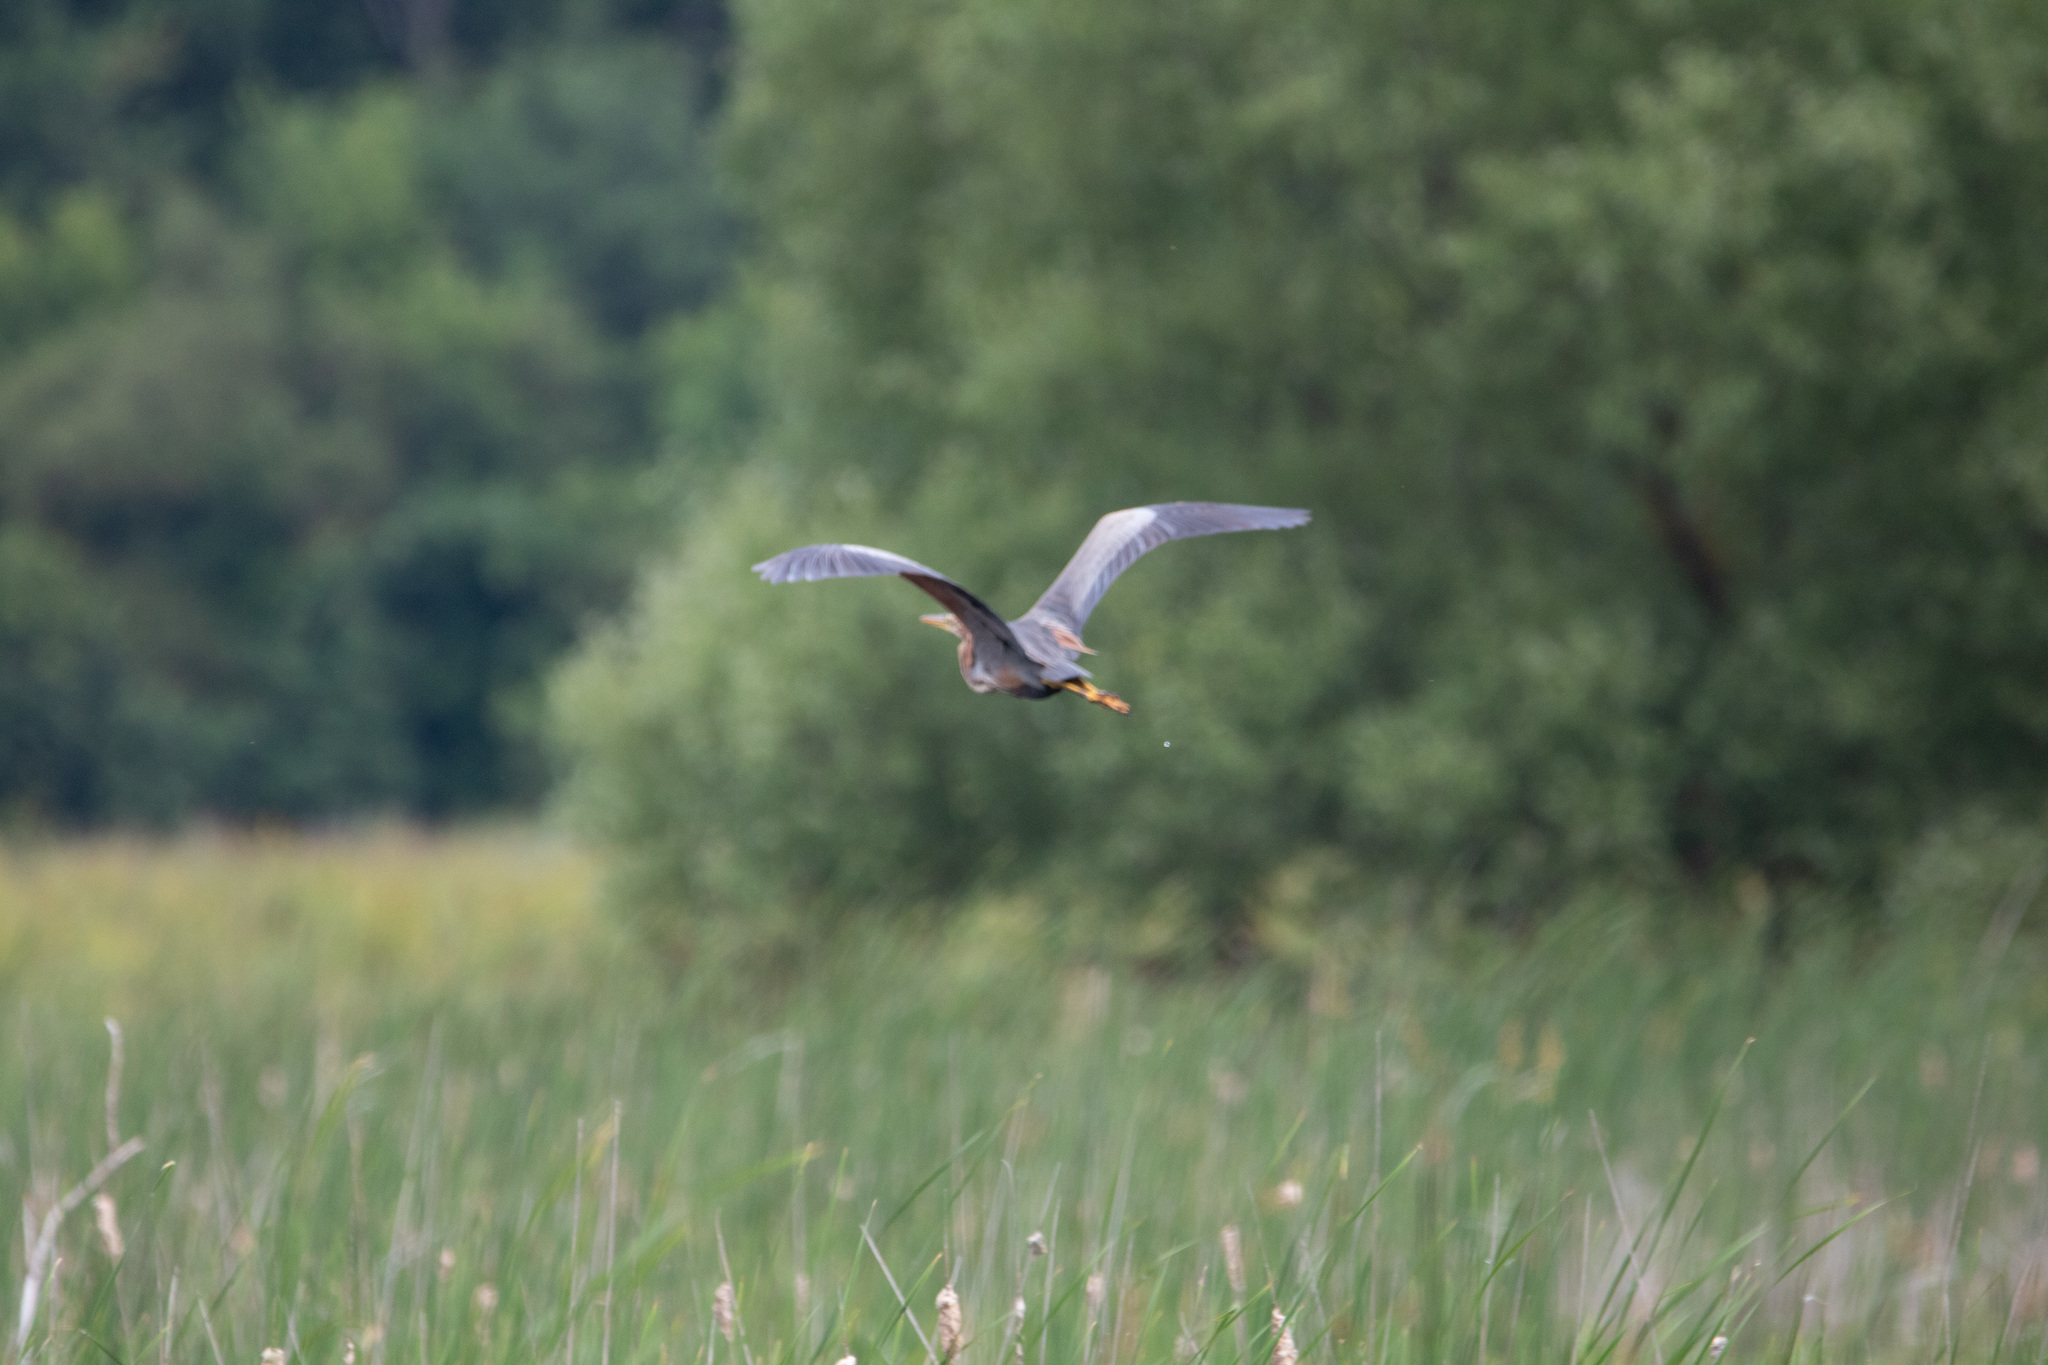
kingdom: Animalia
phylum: Chordata
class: Aves
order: Pelecaniformes
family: Ardeidae
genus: Ardea
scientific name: Ardea purpurea
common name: Purple heron
